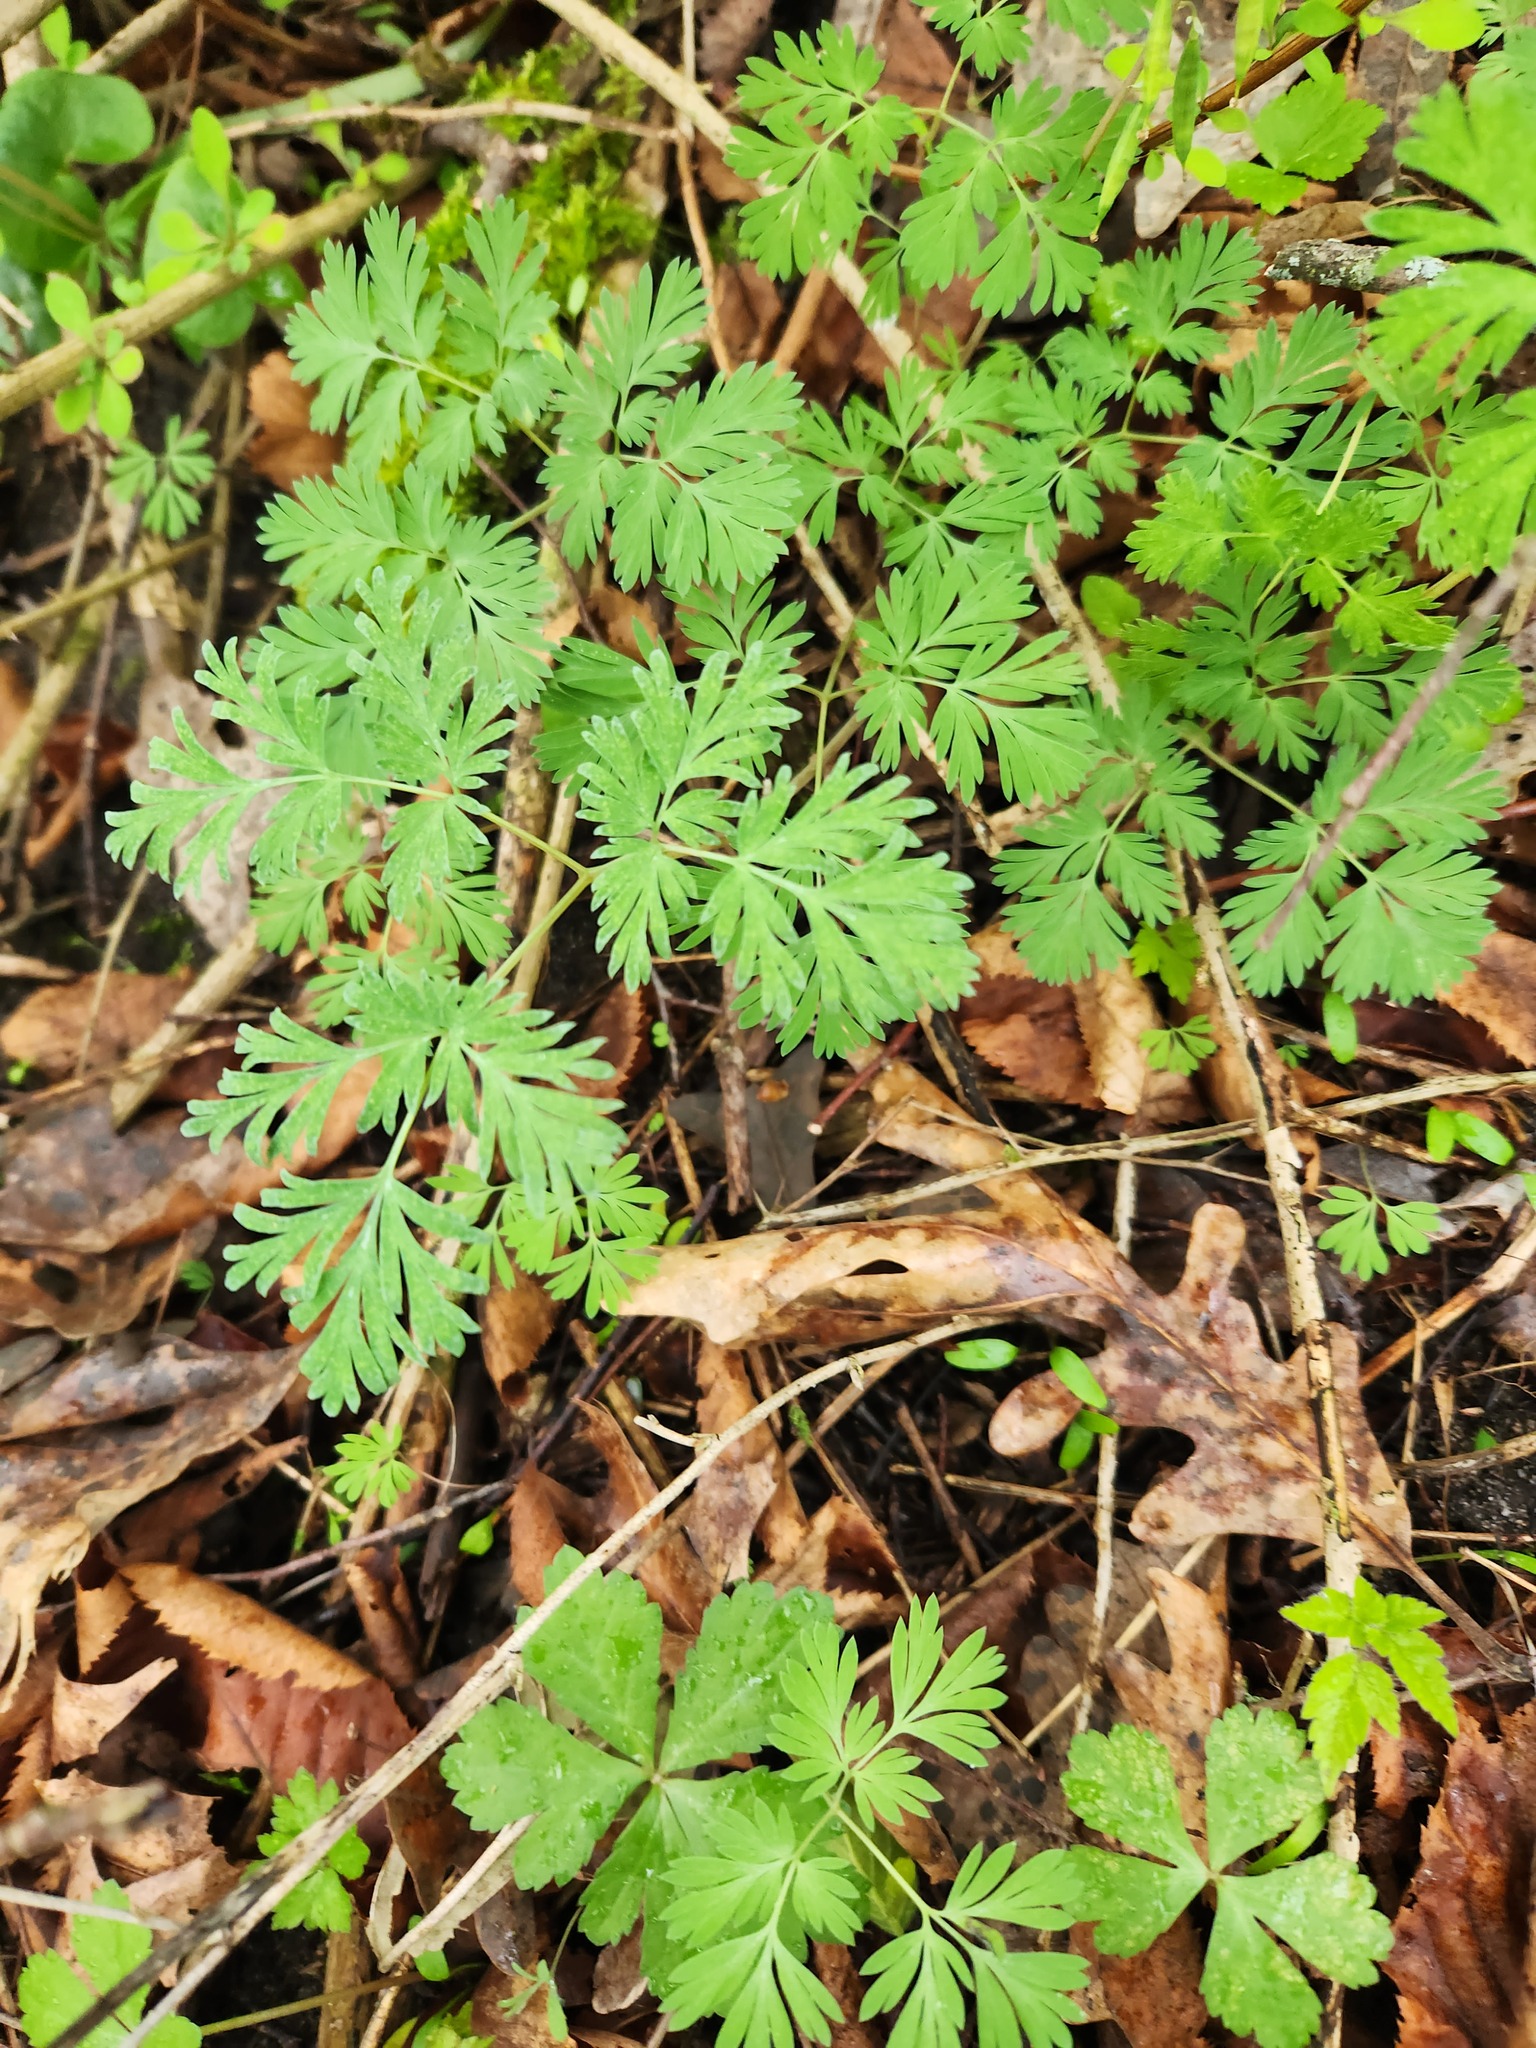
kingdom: Plantae
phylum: Tracheophyta
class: Magnoliopsida
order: Ranunculales
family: Papaveraceae
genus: Dicentra
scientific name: Dicentra cucullaria
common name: Dutchman's breeches
